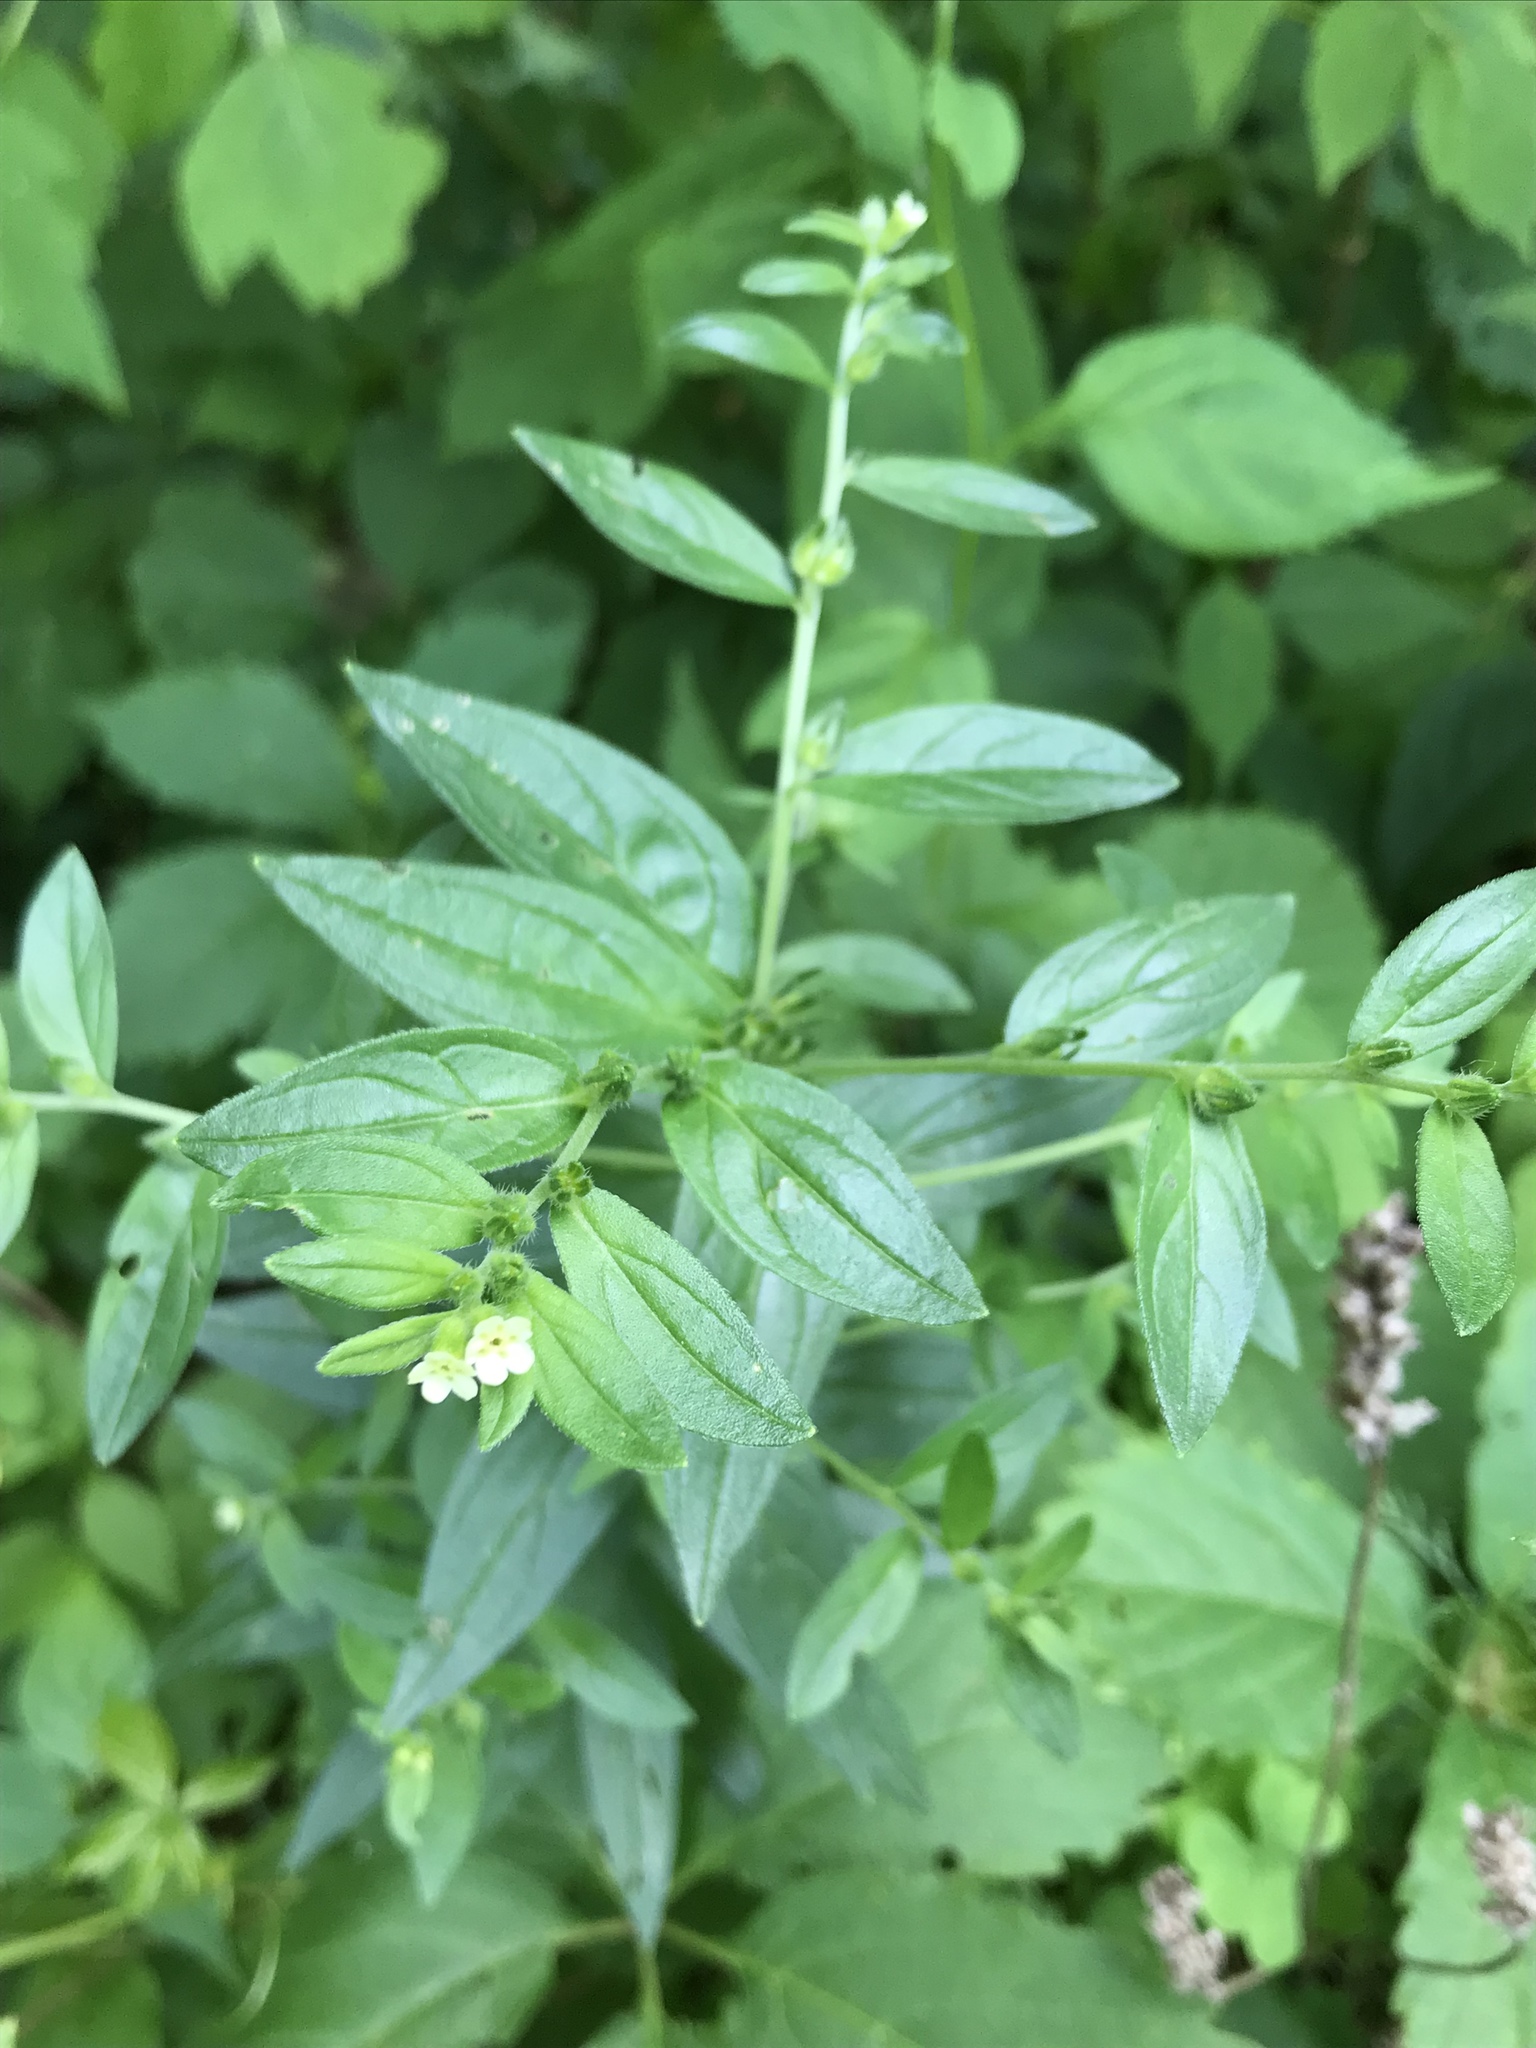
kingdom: Plantae
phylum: Tracheophyta
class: Magnoliopsida
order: Boraginales
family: Boraginaceae
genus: Lithospermum
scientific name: Lithospermum officinale
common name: Common gromwell
